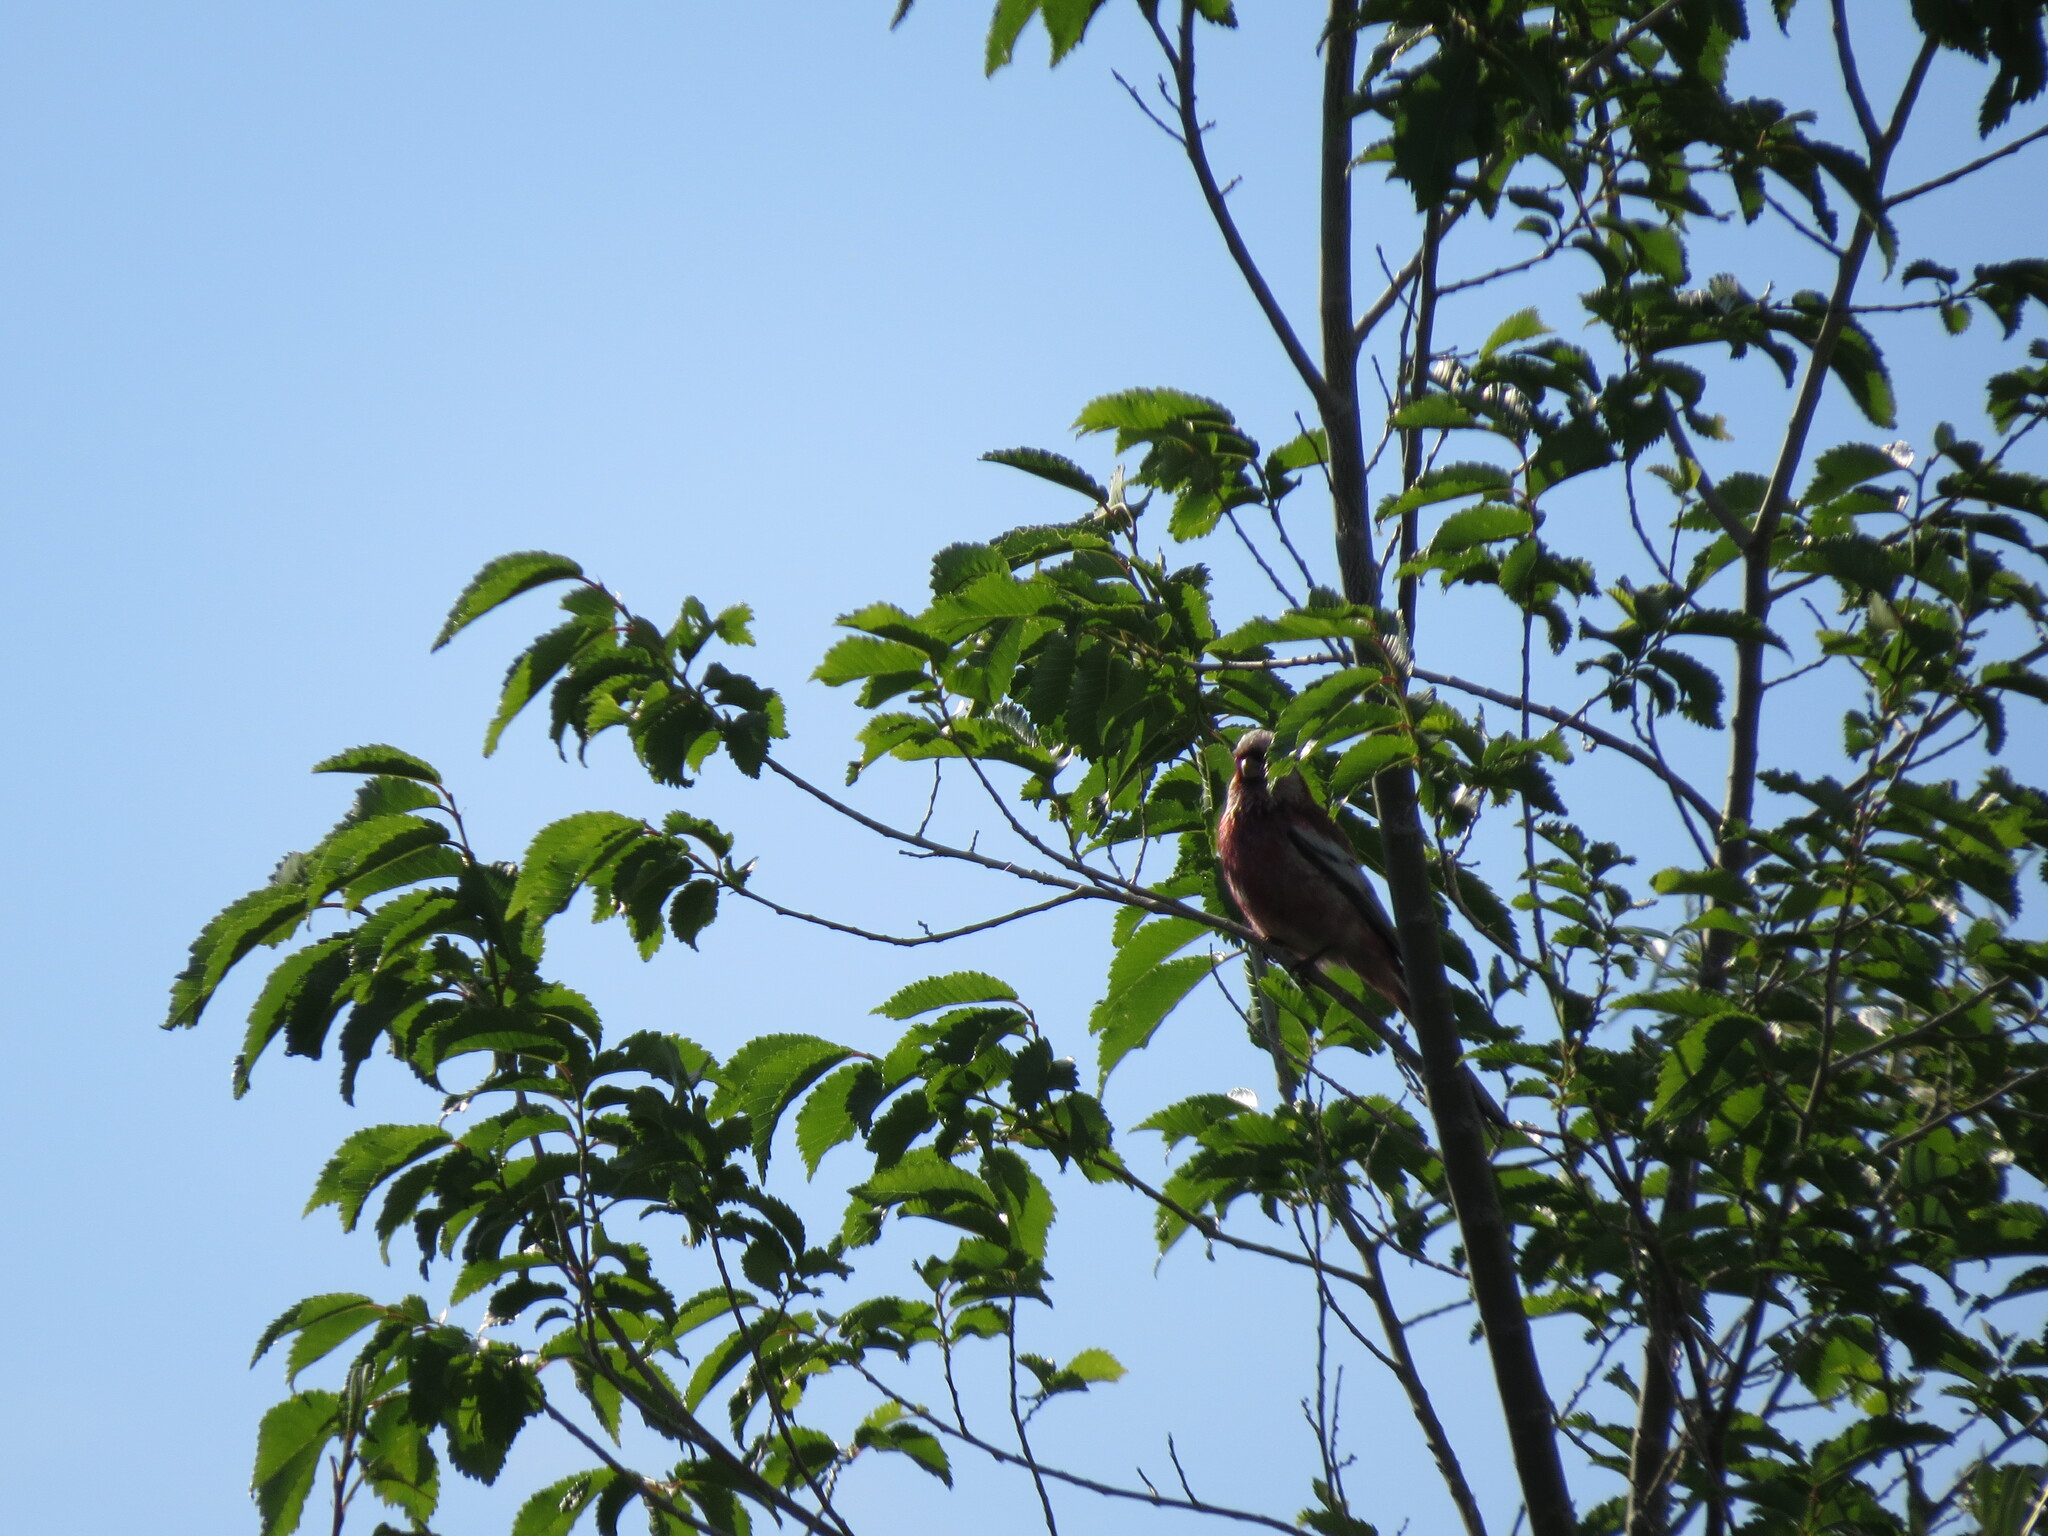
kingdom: Animalia
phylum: Chordata
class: Aves
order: Passeriformes
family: Fringillidae
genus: Carpodacus
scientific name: Carpodacus sibiricus
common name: Long-tailed rosefinch
